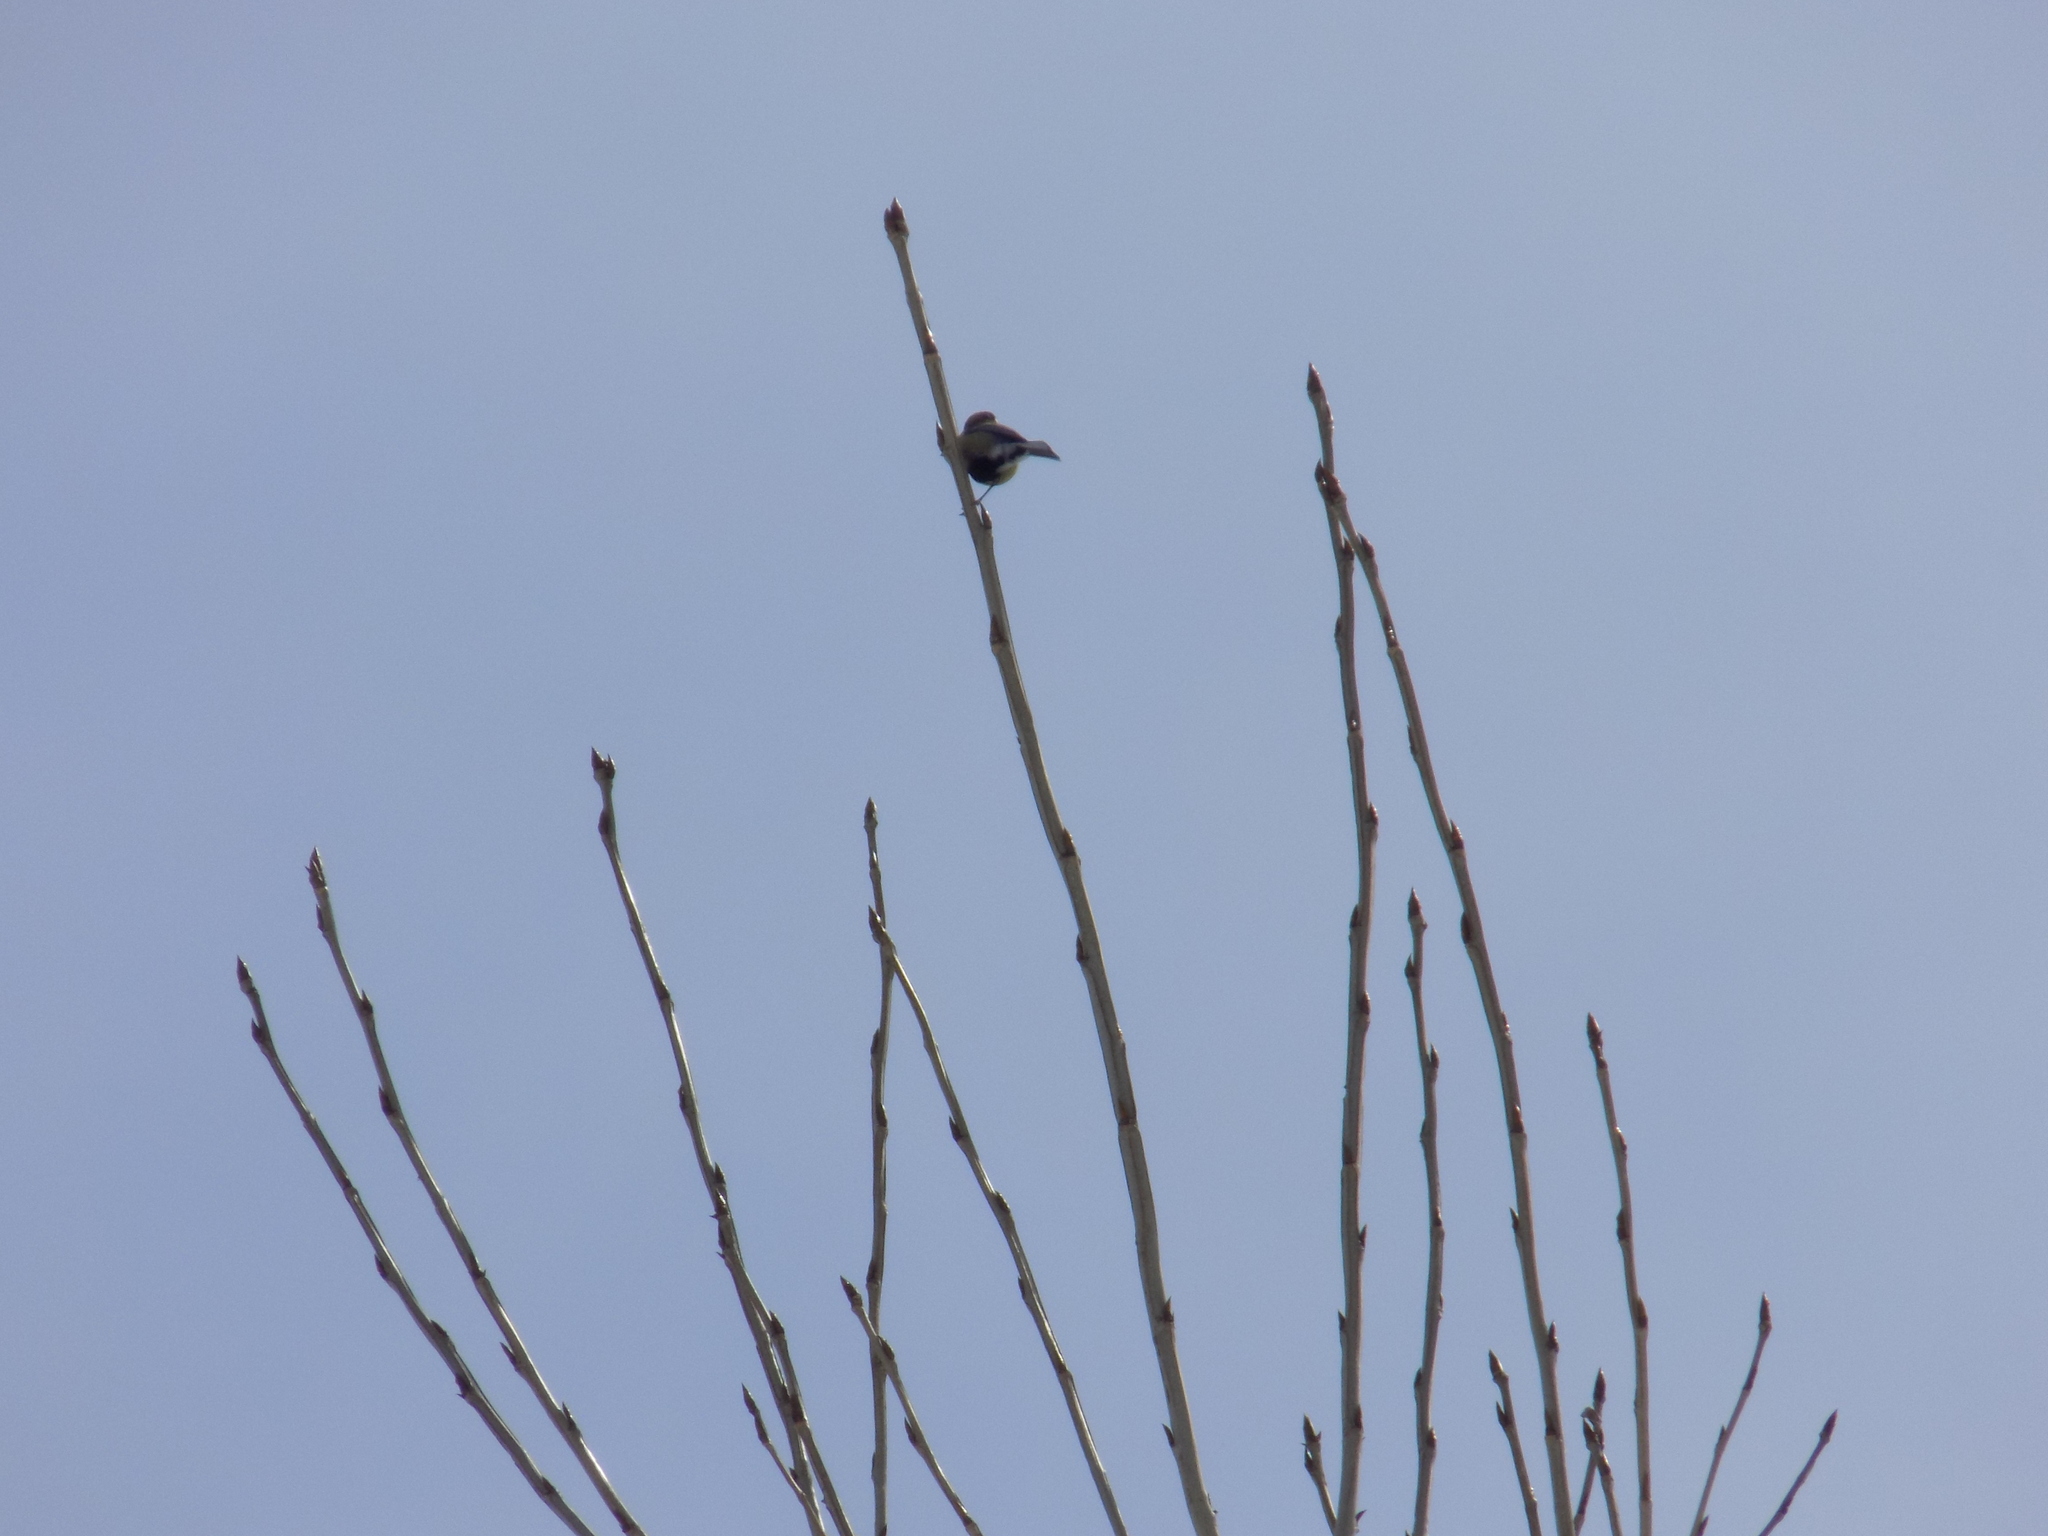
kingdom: Animalia
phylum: Chordata
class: Aves
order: Passeriformes
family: Paridae
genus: Parus
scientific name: Parus major
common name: Great tit
